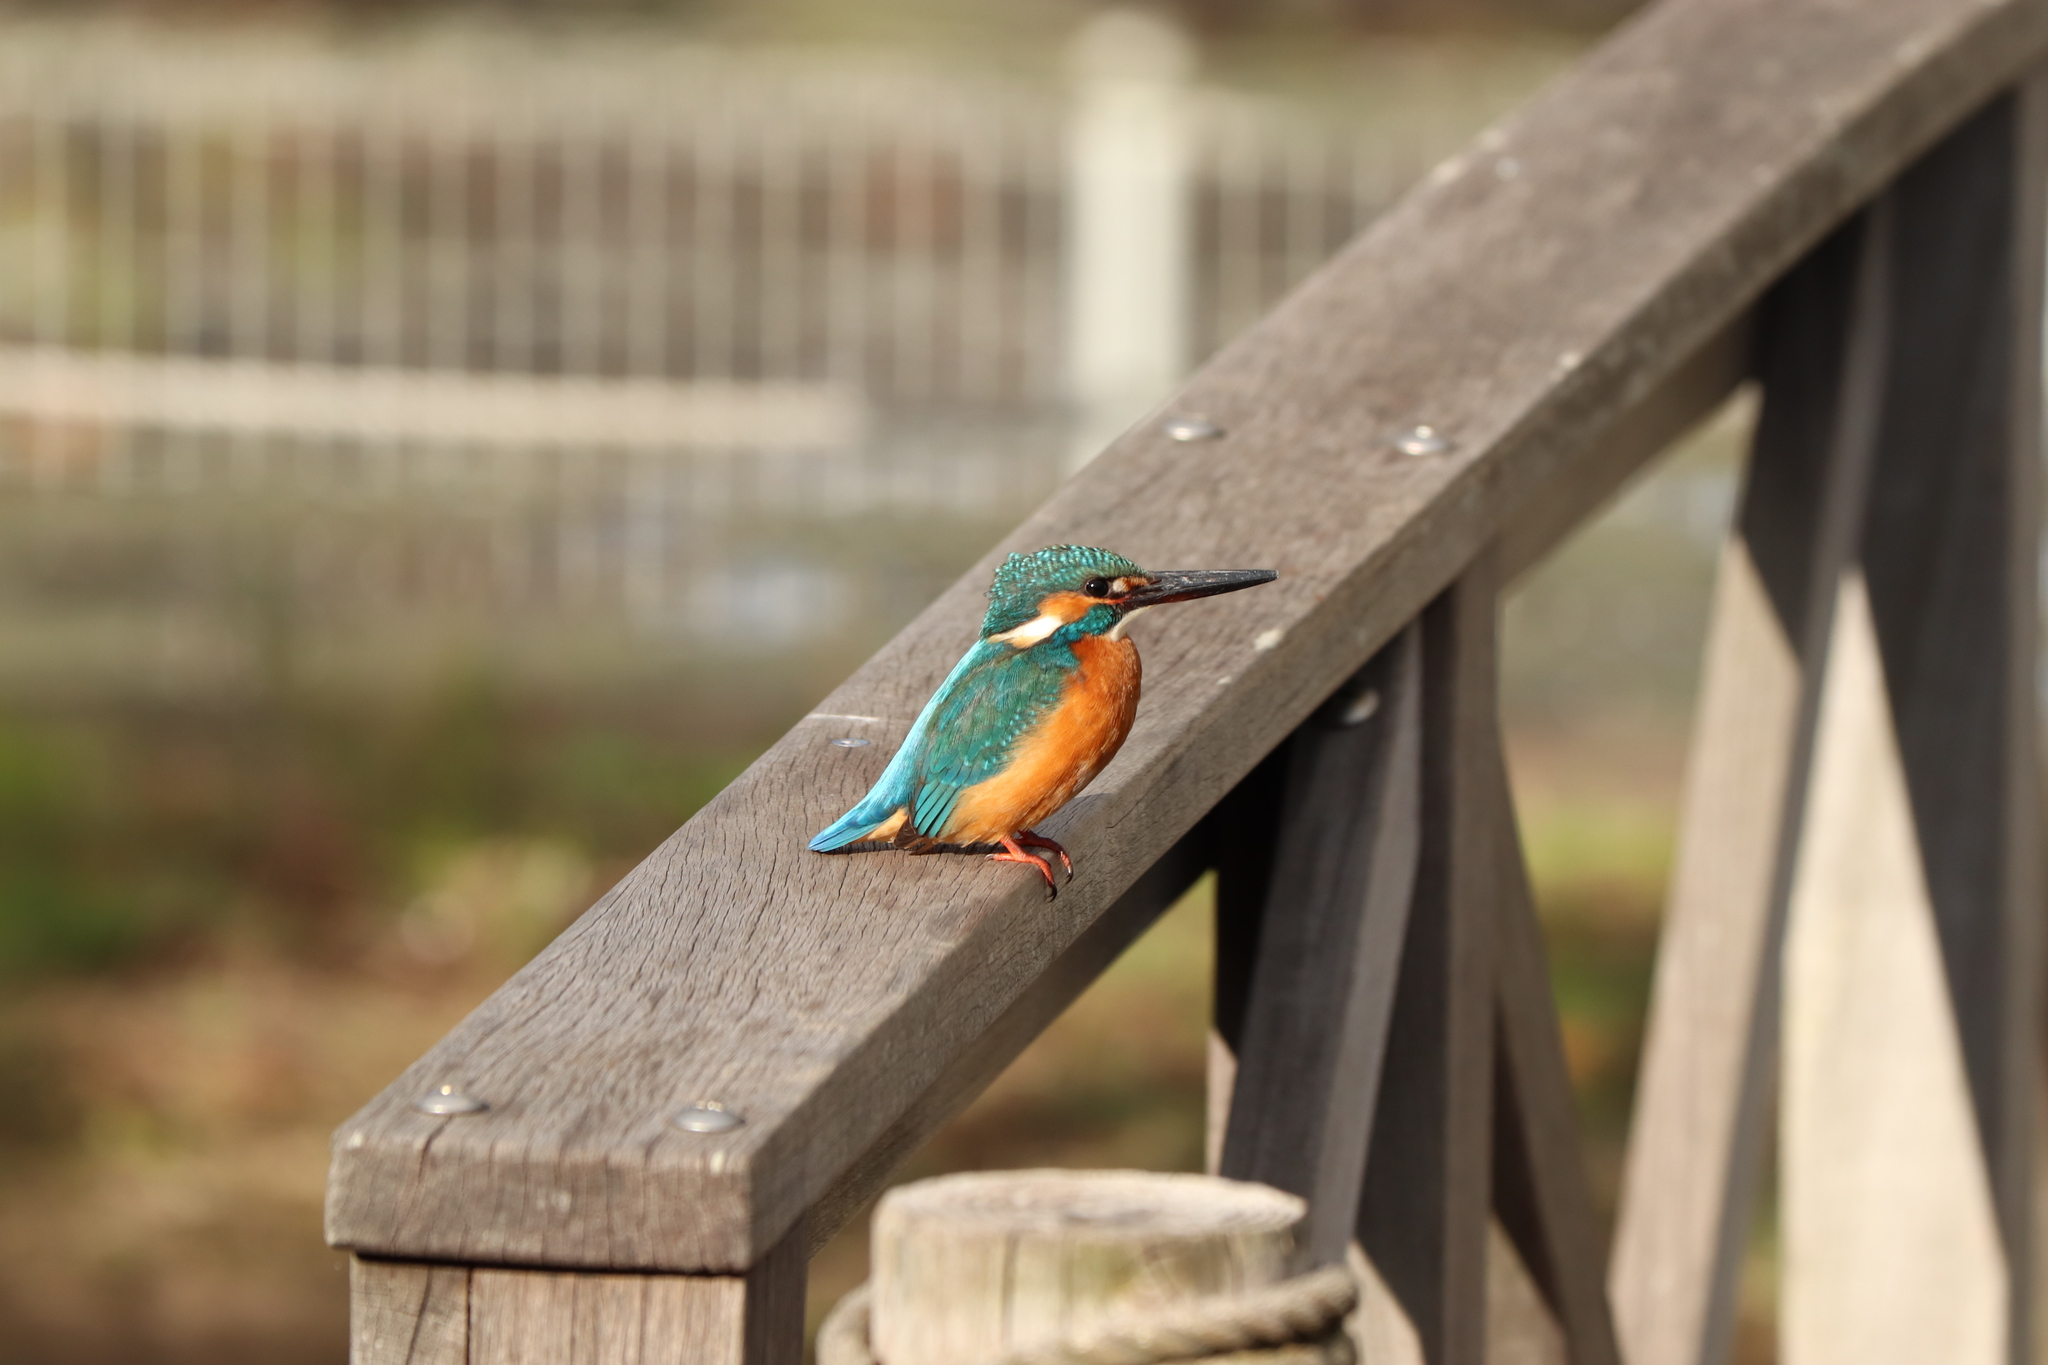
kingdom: Animalia
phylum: Chordata
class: Aves
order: Coraciiformes
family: Alcedinidae
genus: Alcedo
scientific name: Alcedo atthis
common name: Common kingfisher
